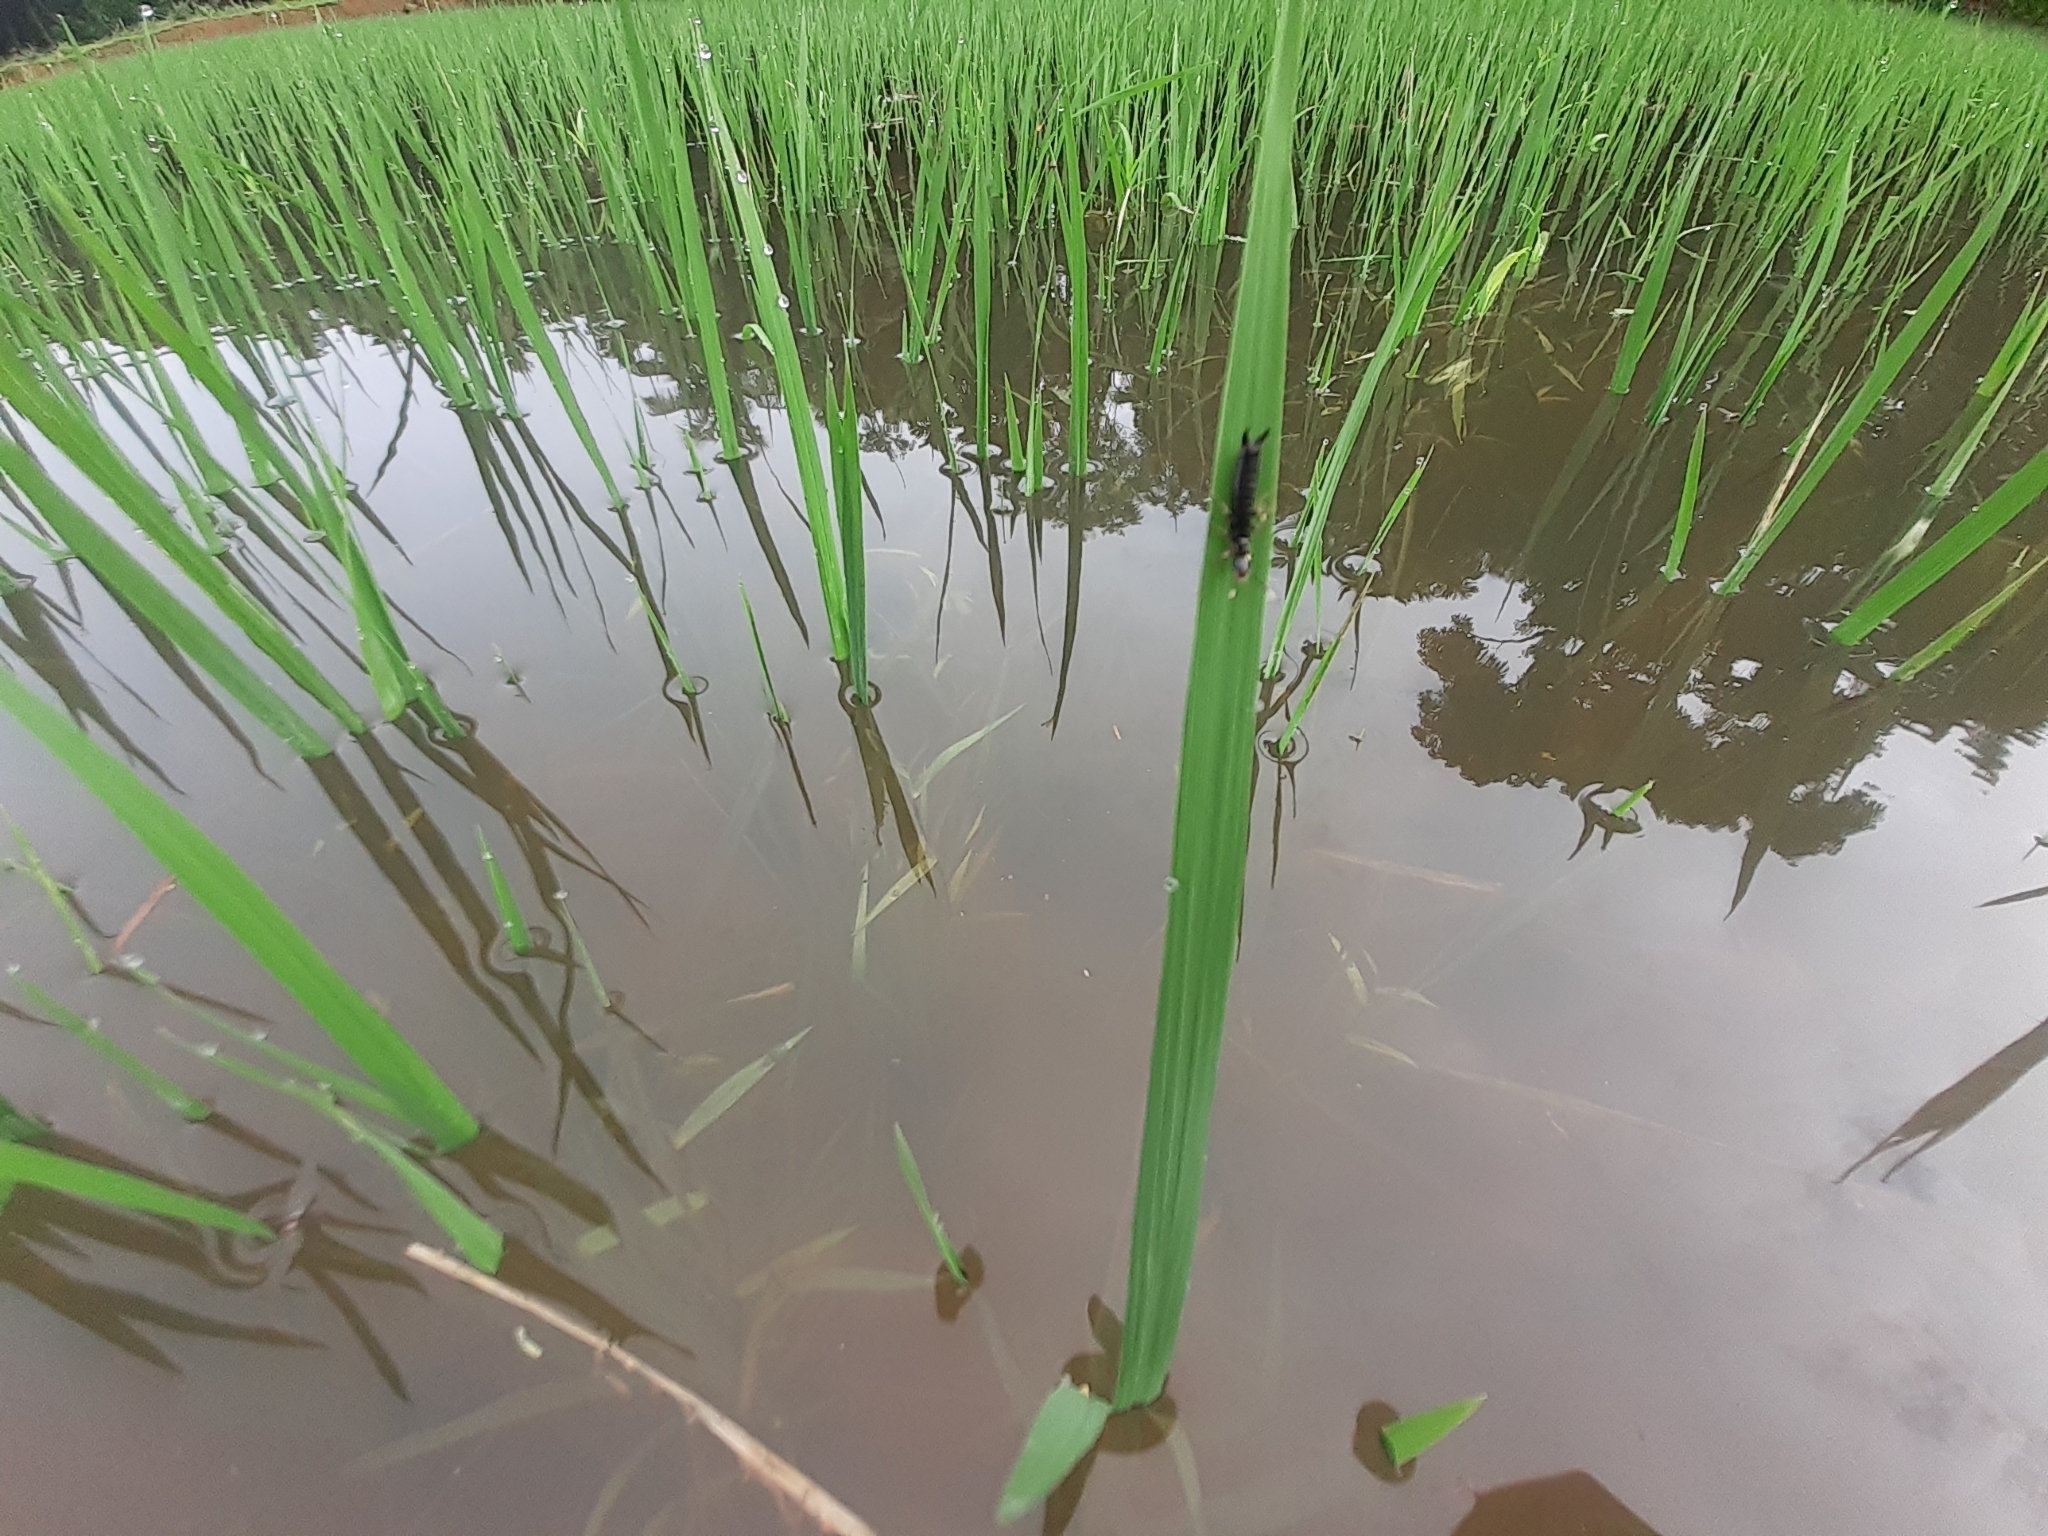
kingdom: Plantae
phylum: Tracheophyta
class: Liliopsida
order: Poales
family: Poaceae
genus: Oryza
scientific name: Oryza sativa
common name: Rice
